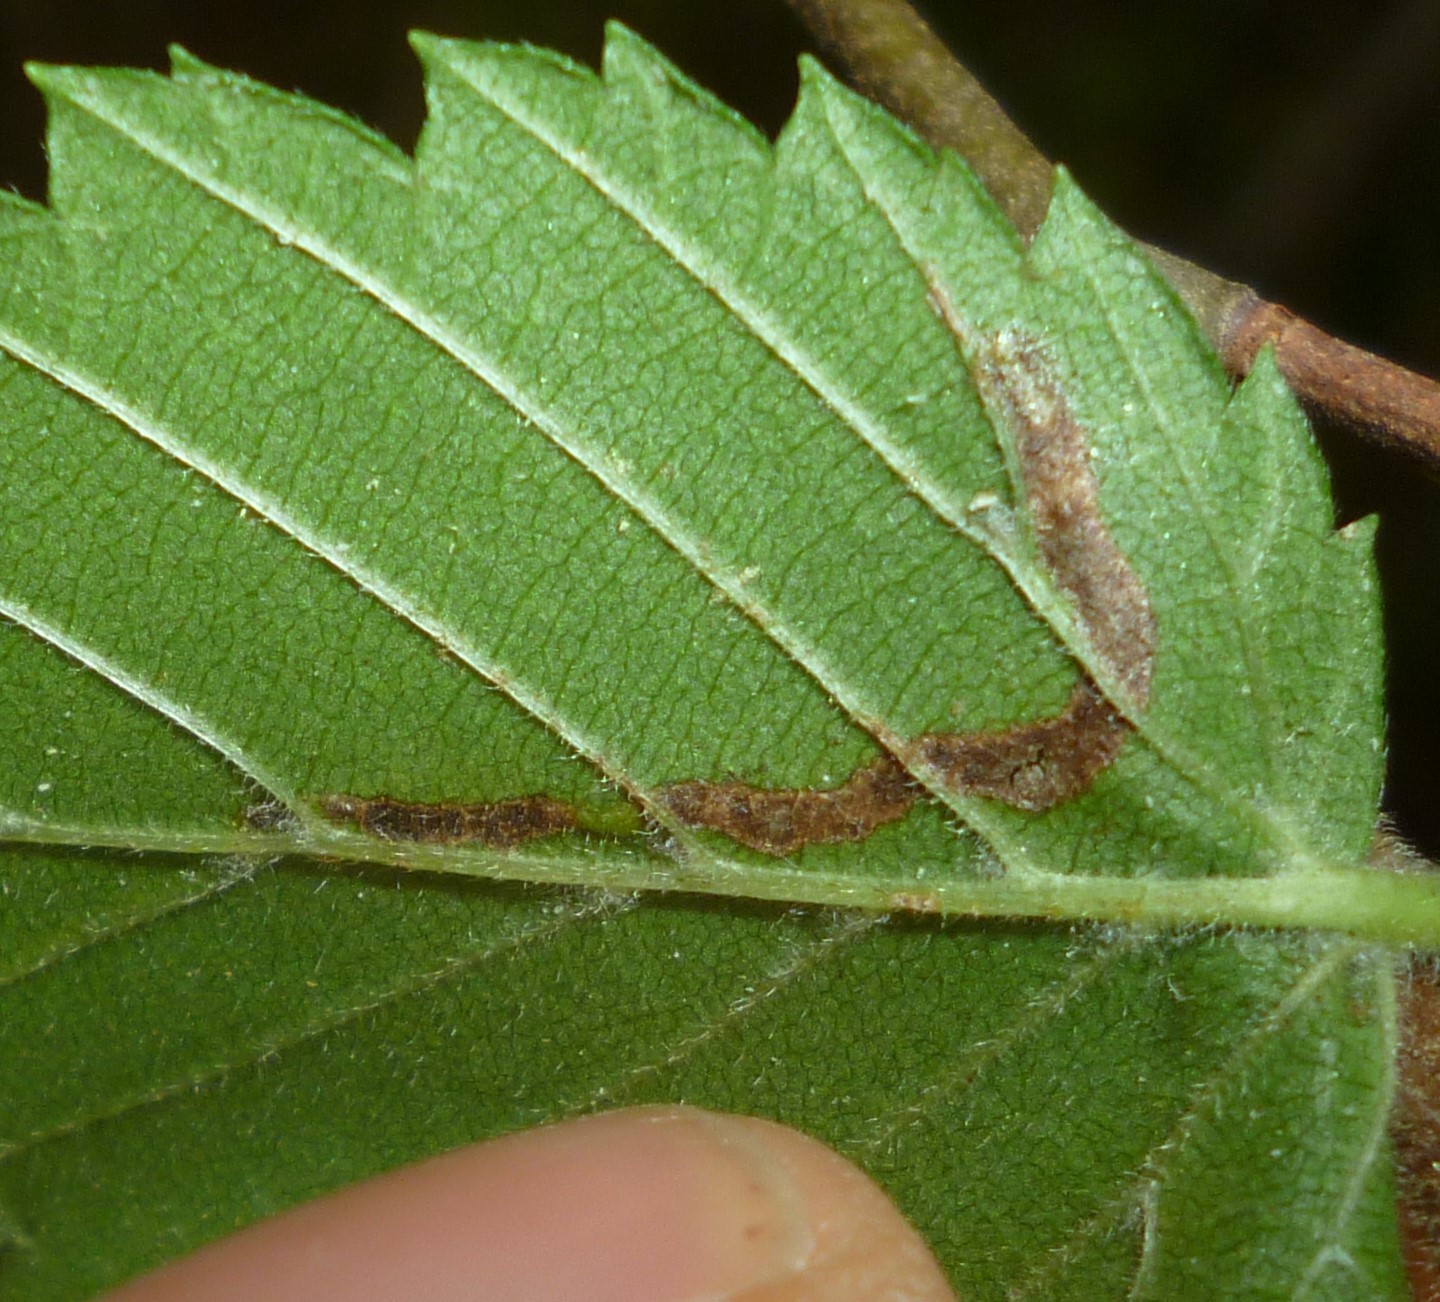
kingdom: Animalia
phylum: Arthropoda
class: Insecta
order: Diptera
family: Agromyzidae
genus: Agromyza
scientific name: Agromyza aristata
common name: Elm agromyzid leafminer
